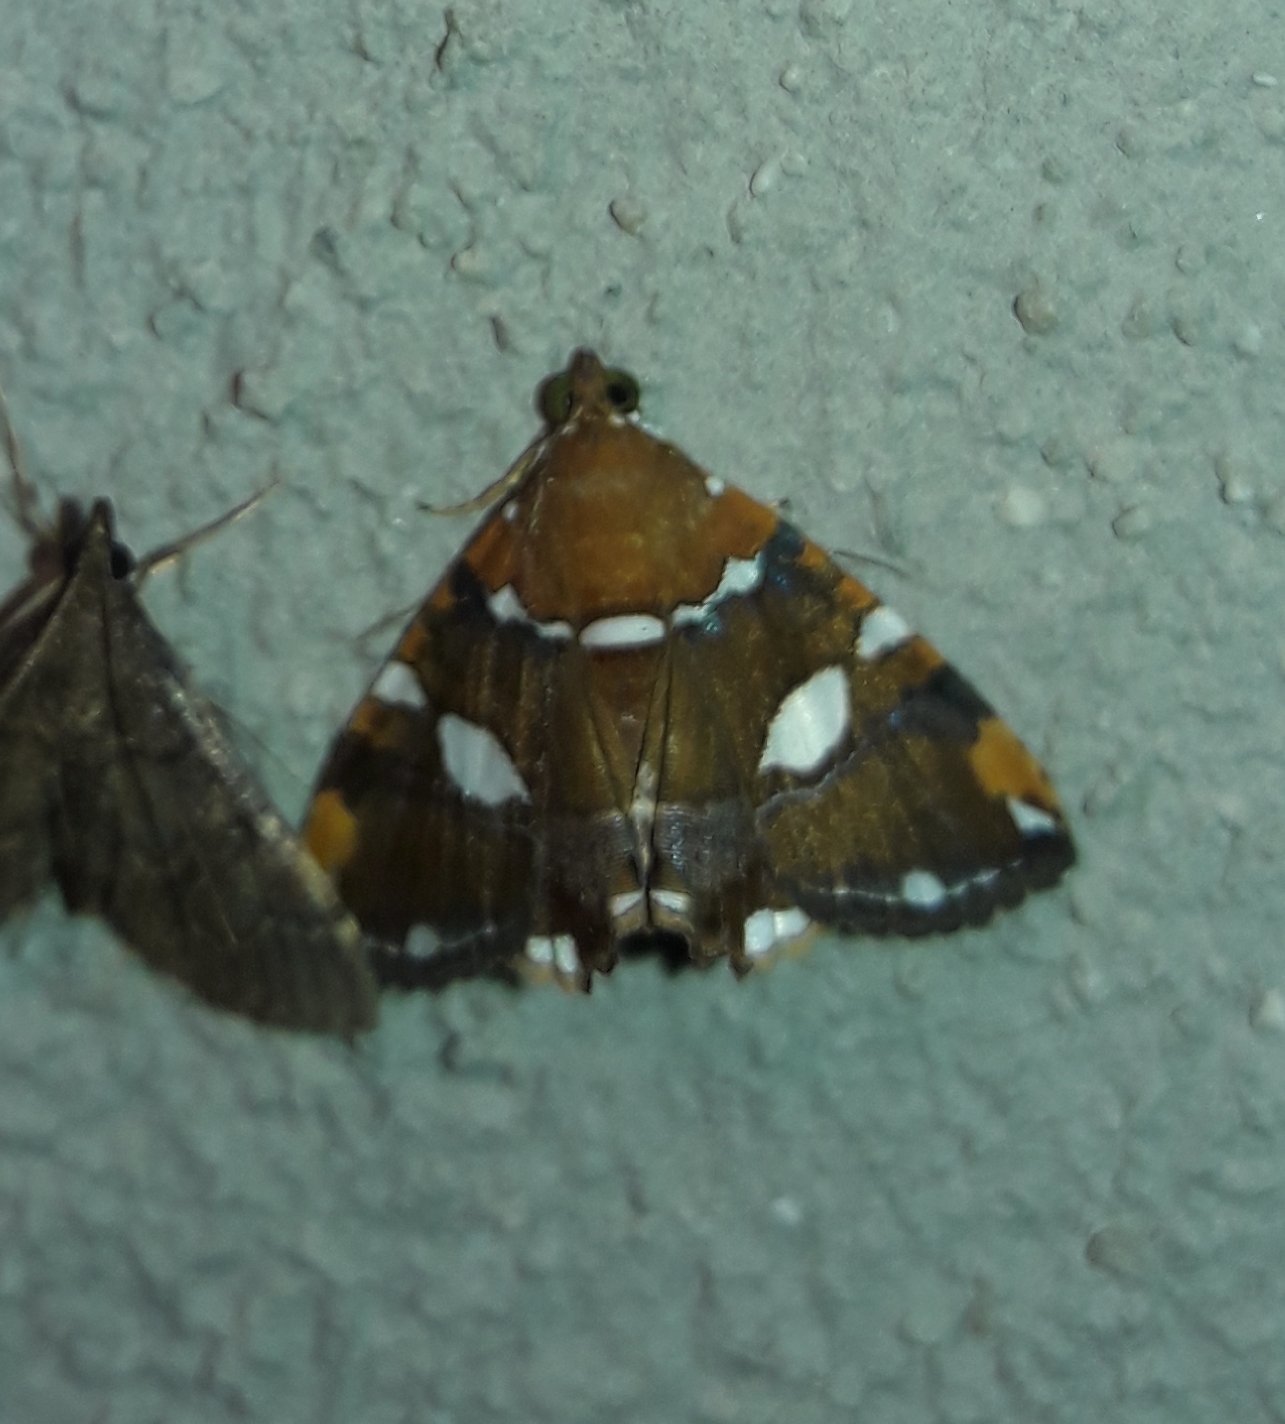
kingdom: Animalia
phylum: Arthropoda
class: Insecta
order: Lepidoptera
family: Erebidae
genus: Eulepidotis
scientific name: Eulepidotis guttata
